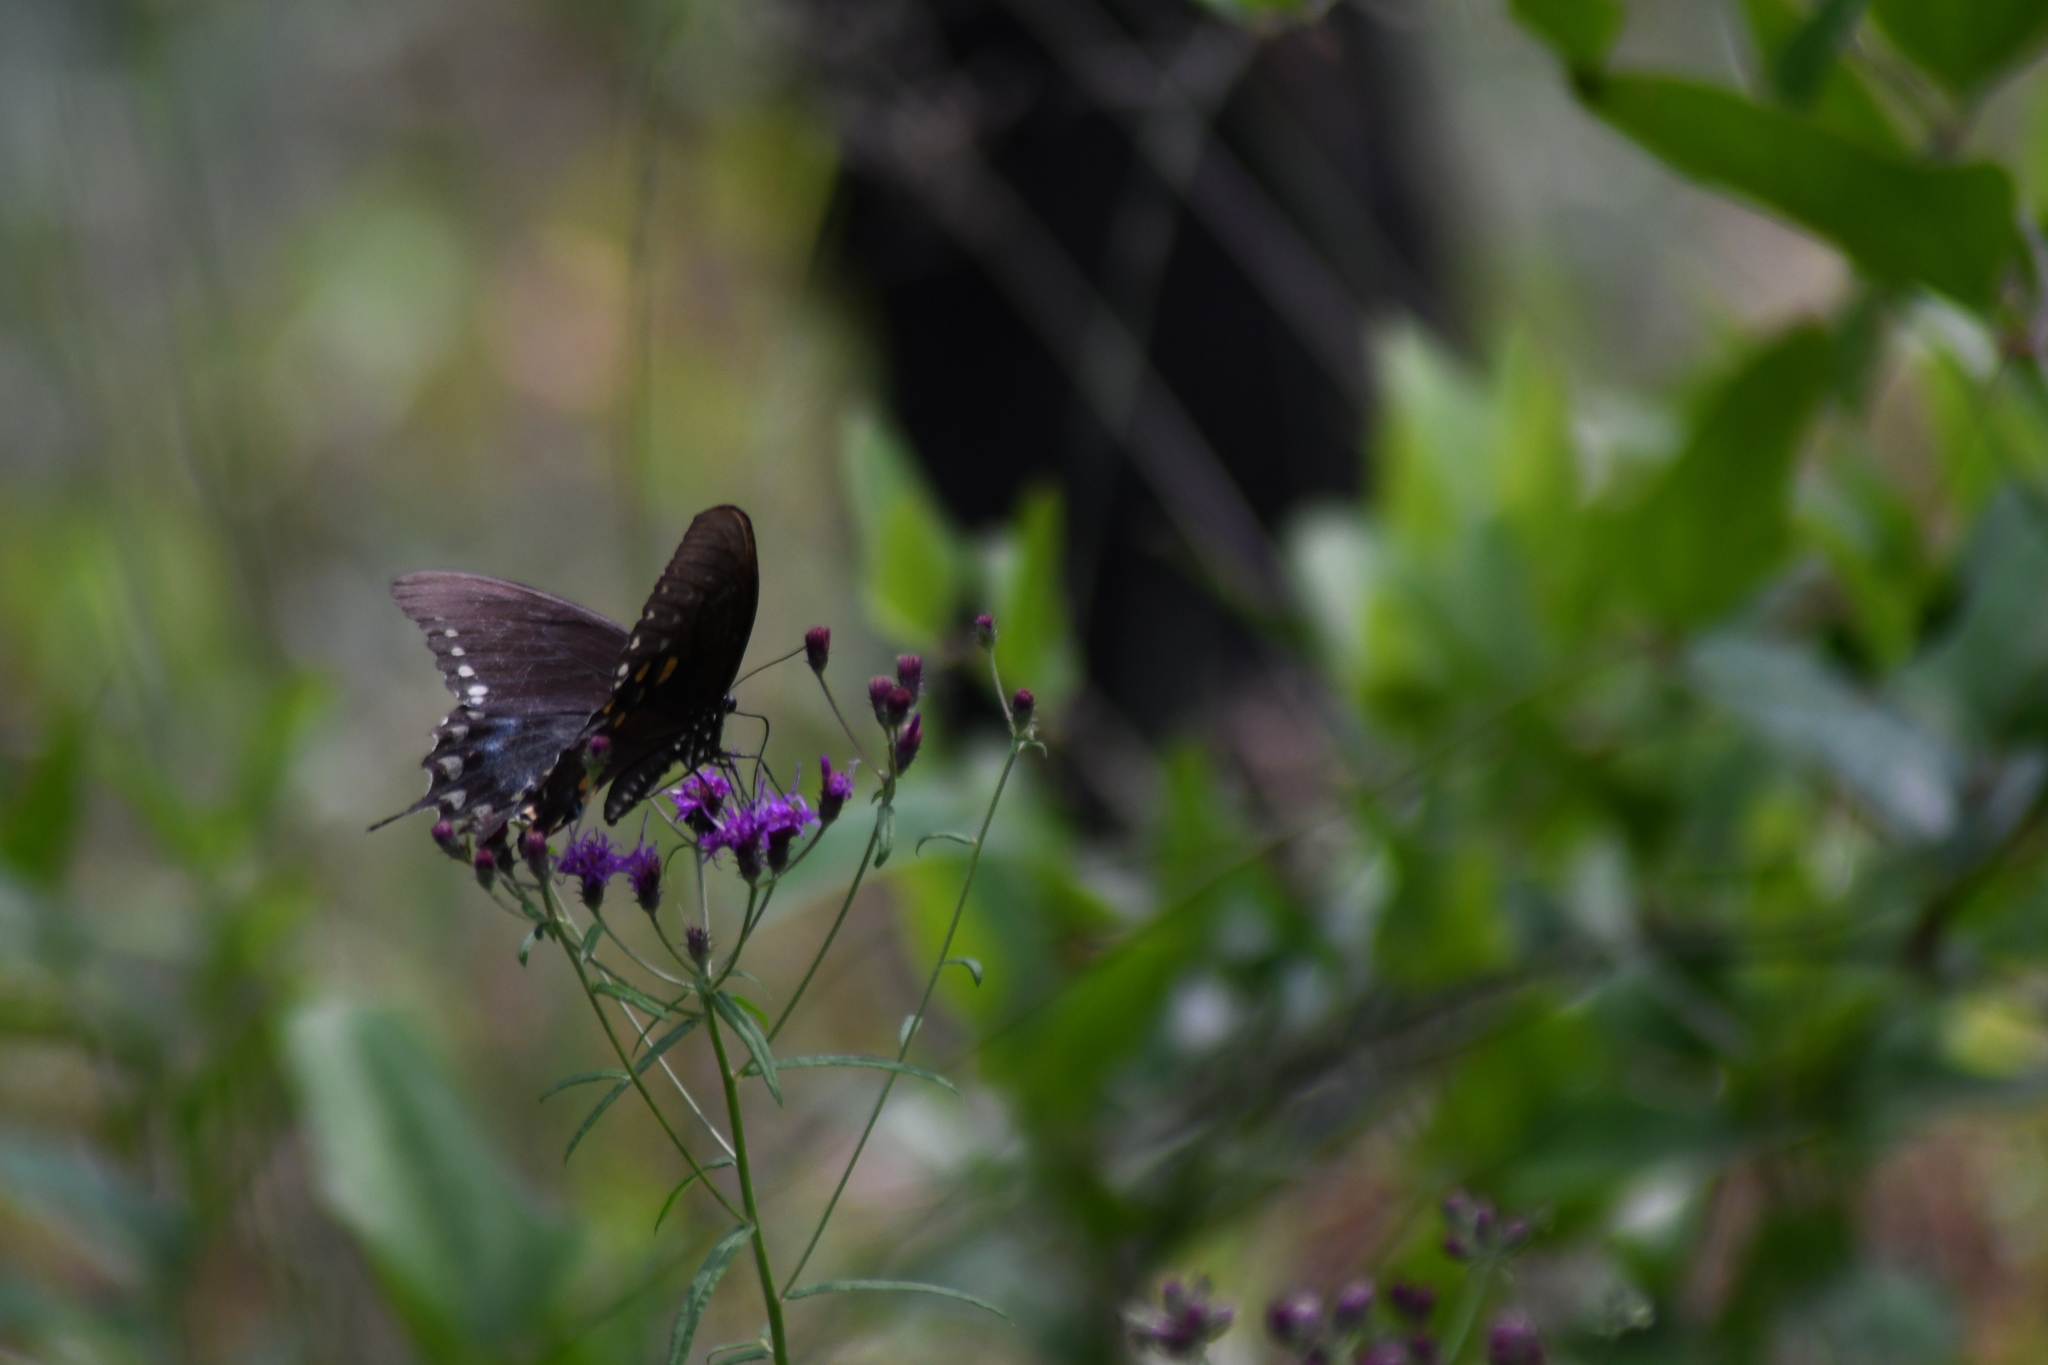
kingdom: Animalia
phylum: Arthropoda
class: Insecta
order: Lepidoptera
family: Papilionidae
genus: Papilio
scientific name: Papilio troilus
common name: Spicebush swallowtail
